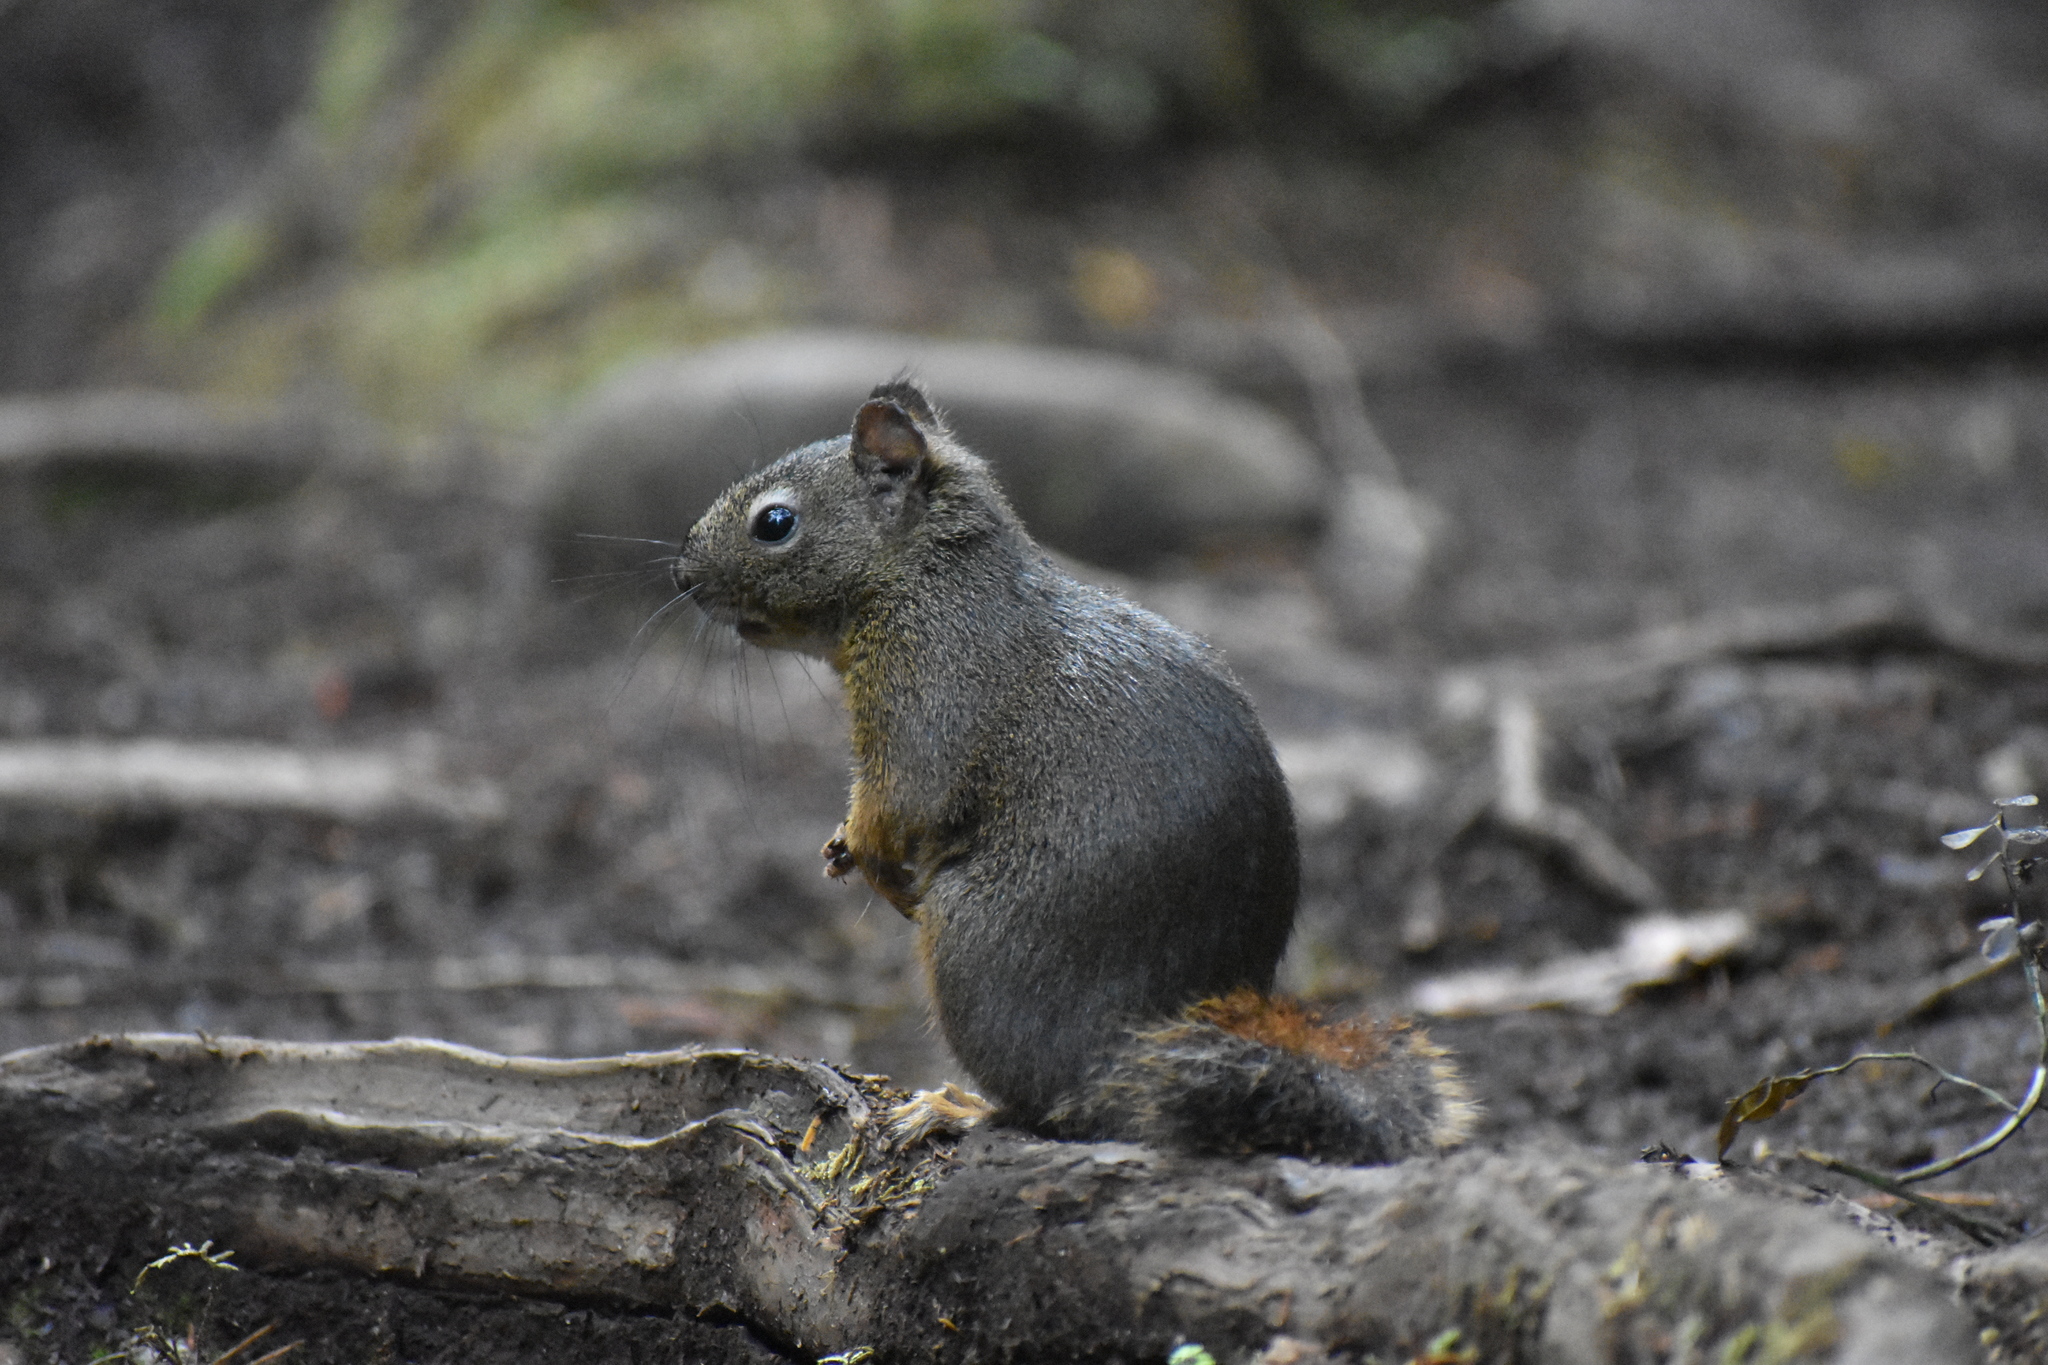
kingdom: Animalia
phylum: Chordata
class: Mammalia
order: Rodentia
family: Sciuridae
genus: Tamiasciurus
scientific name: Tamiasciurus hudsonicus
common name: Red squirrel
